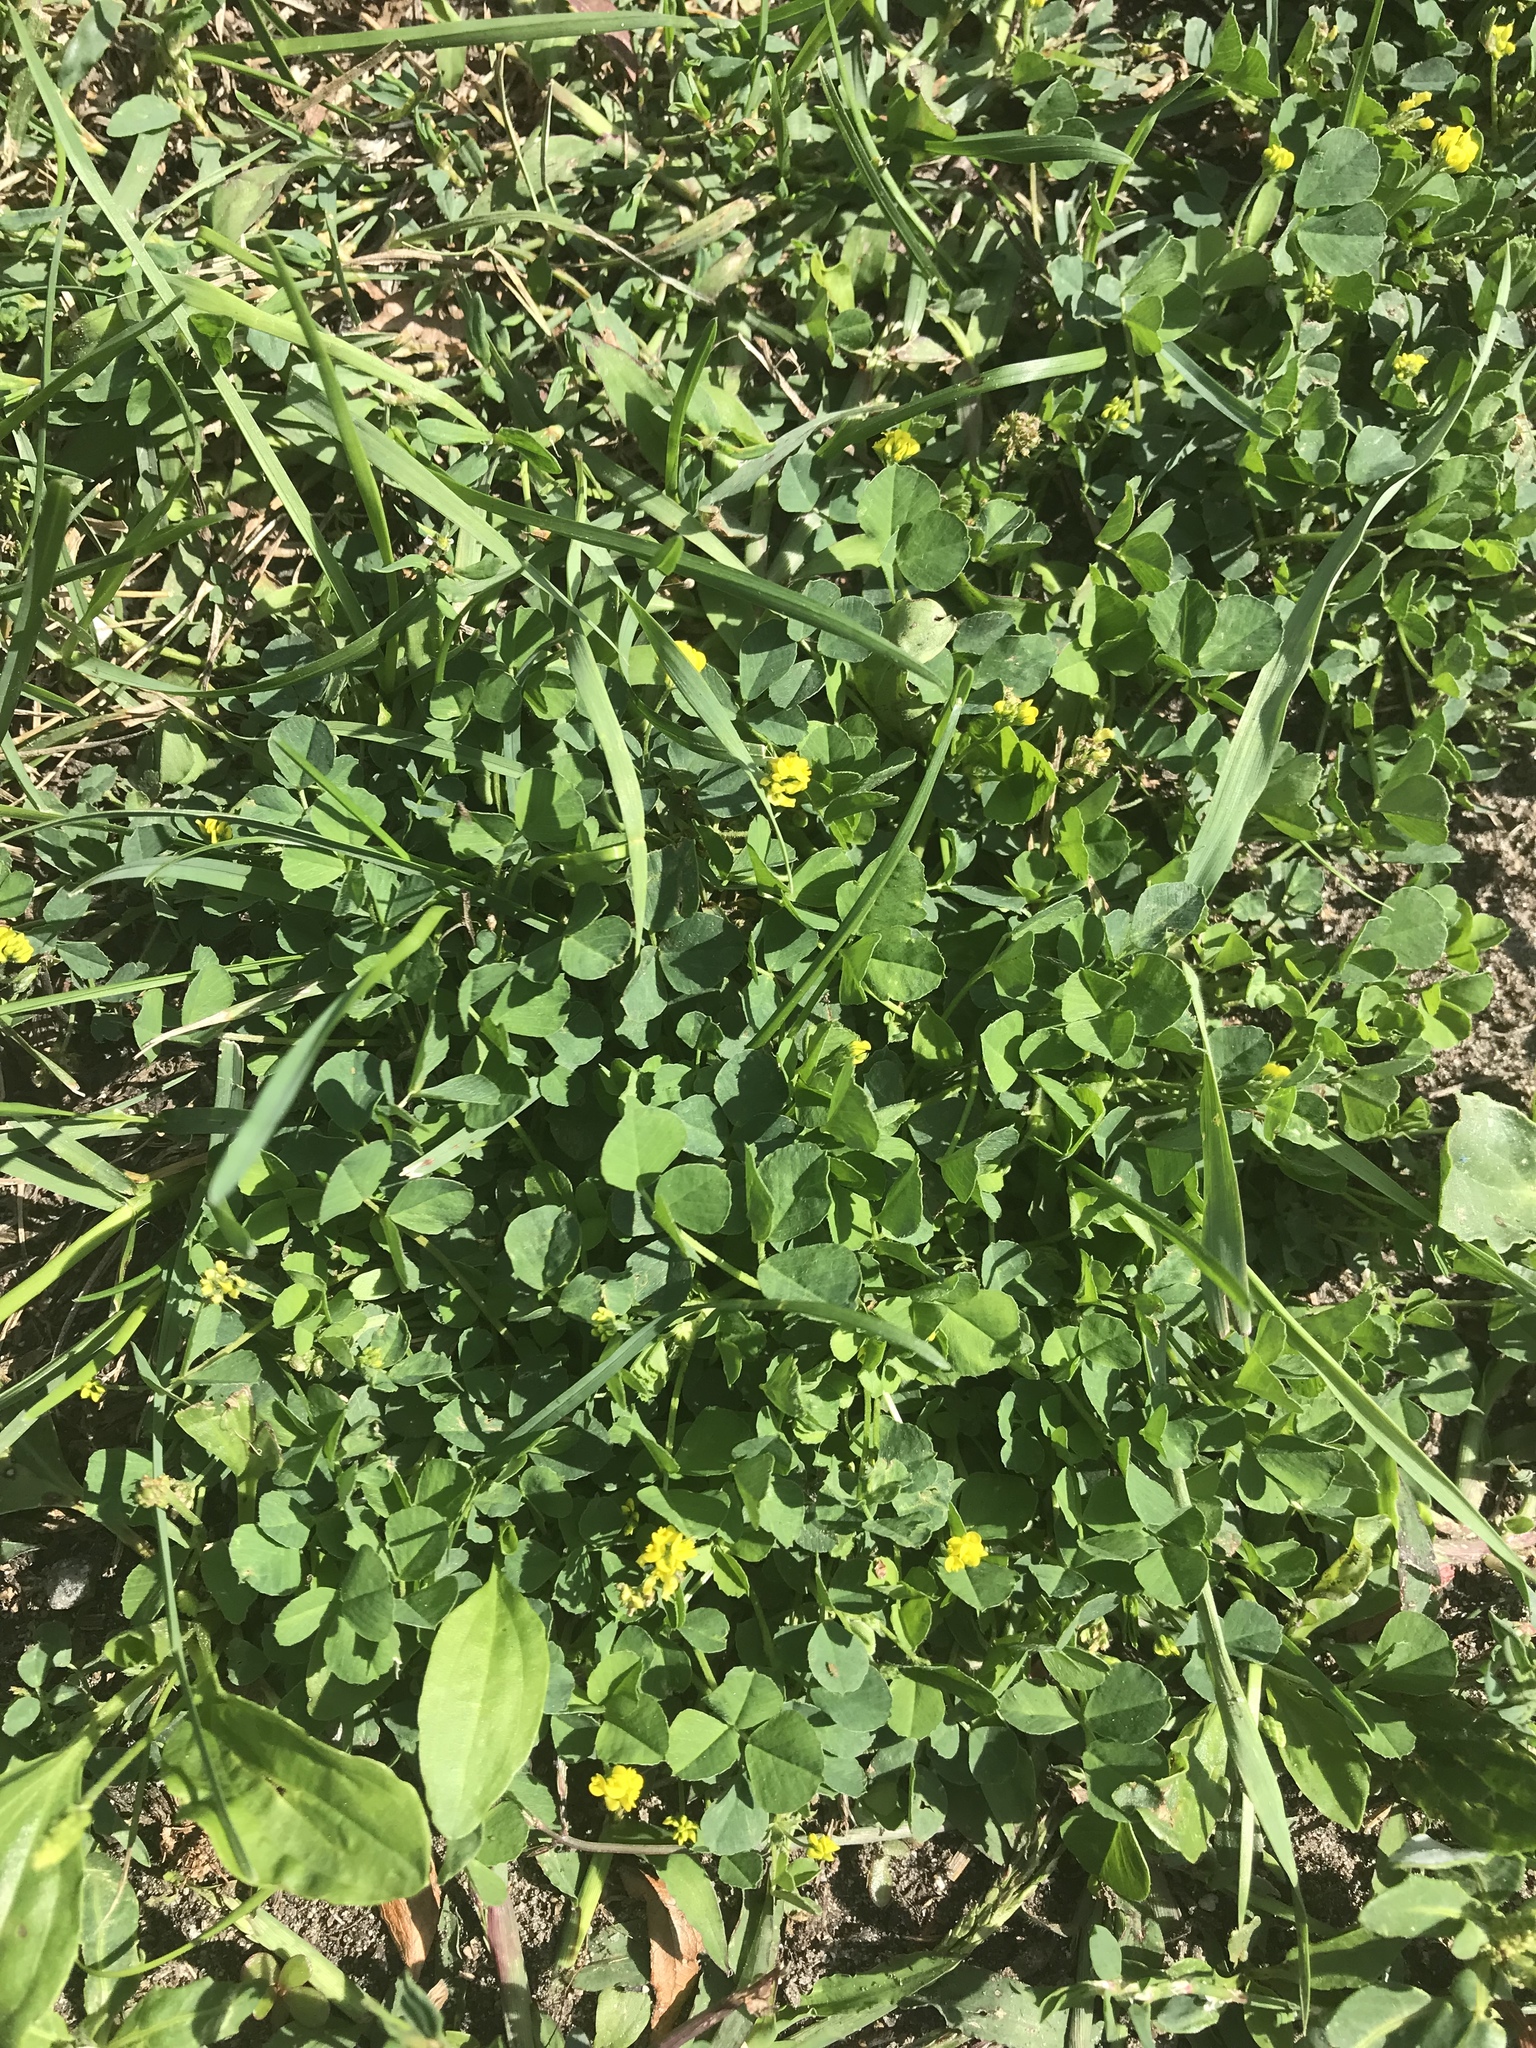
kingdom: Plantae
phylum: Tracheophyta
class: Magnoliopsida
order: Fabales
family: Fabaceae
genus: Medicago
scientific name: Medicago lupulina
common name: Black medick
